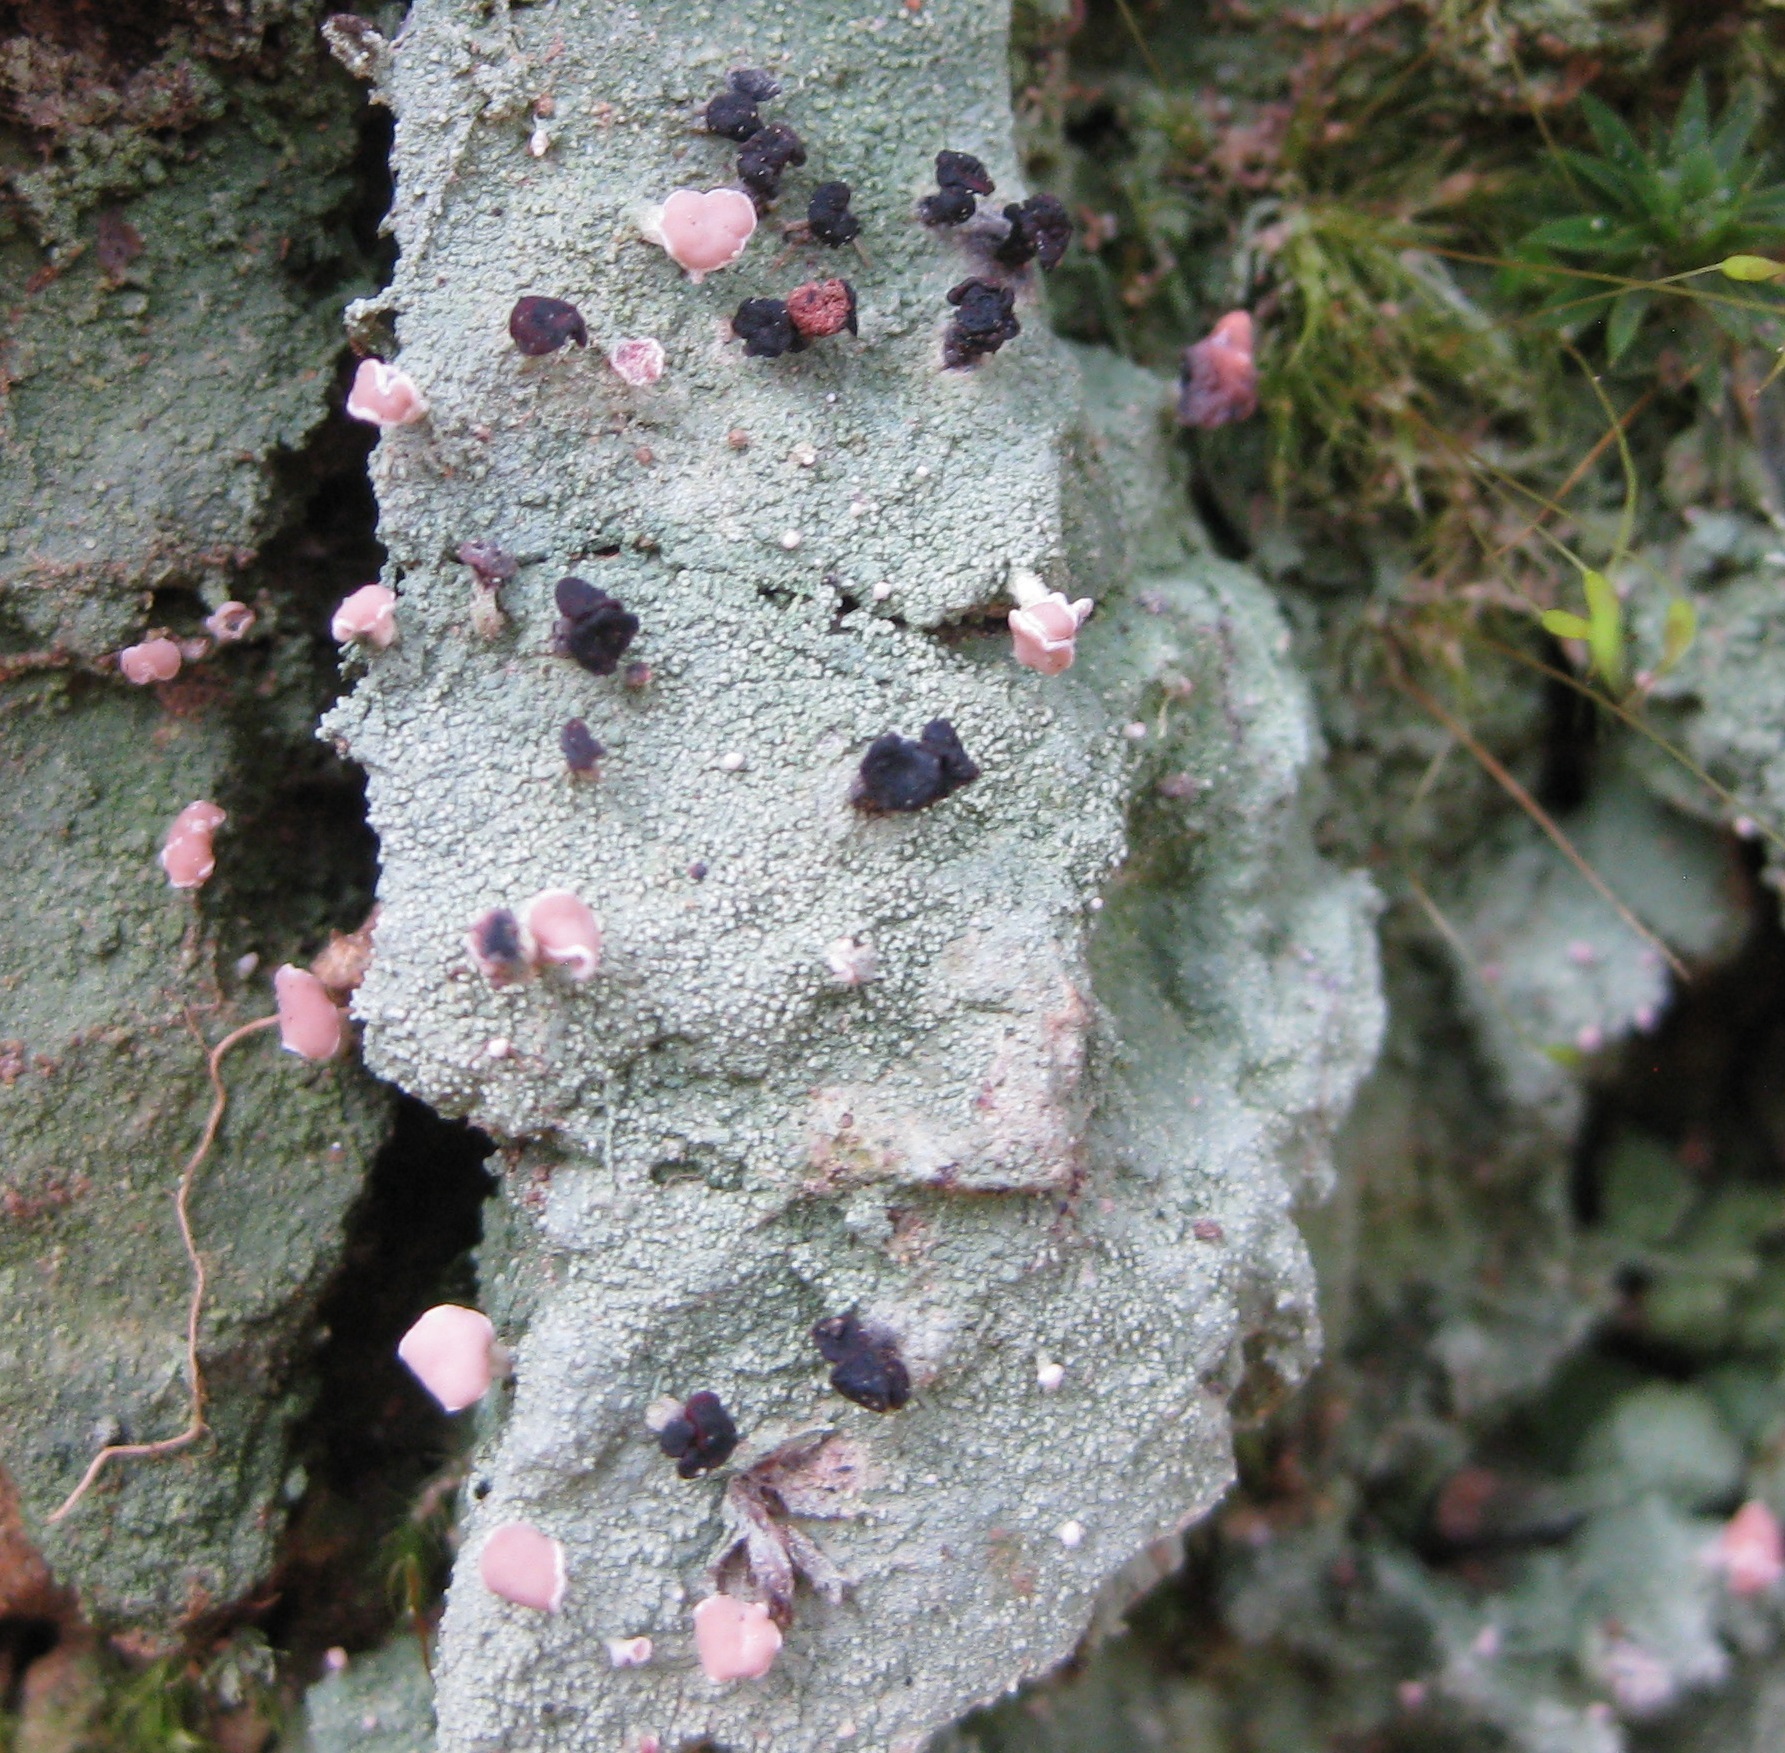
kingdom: Fungi
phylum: Ascomycota
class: Lecanoromycetes
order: Baeomycetales
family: Baeomycetaceae
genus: Baeomyces
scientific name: Baeomyces heteromorphus
